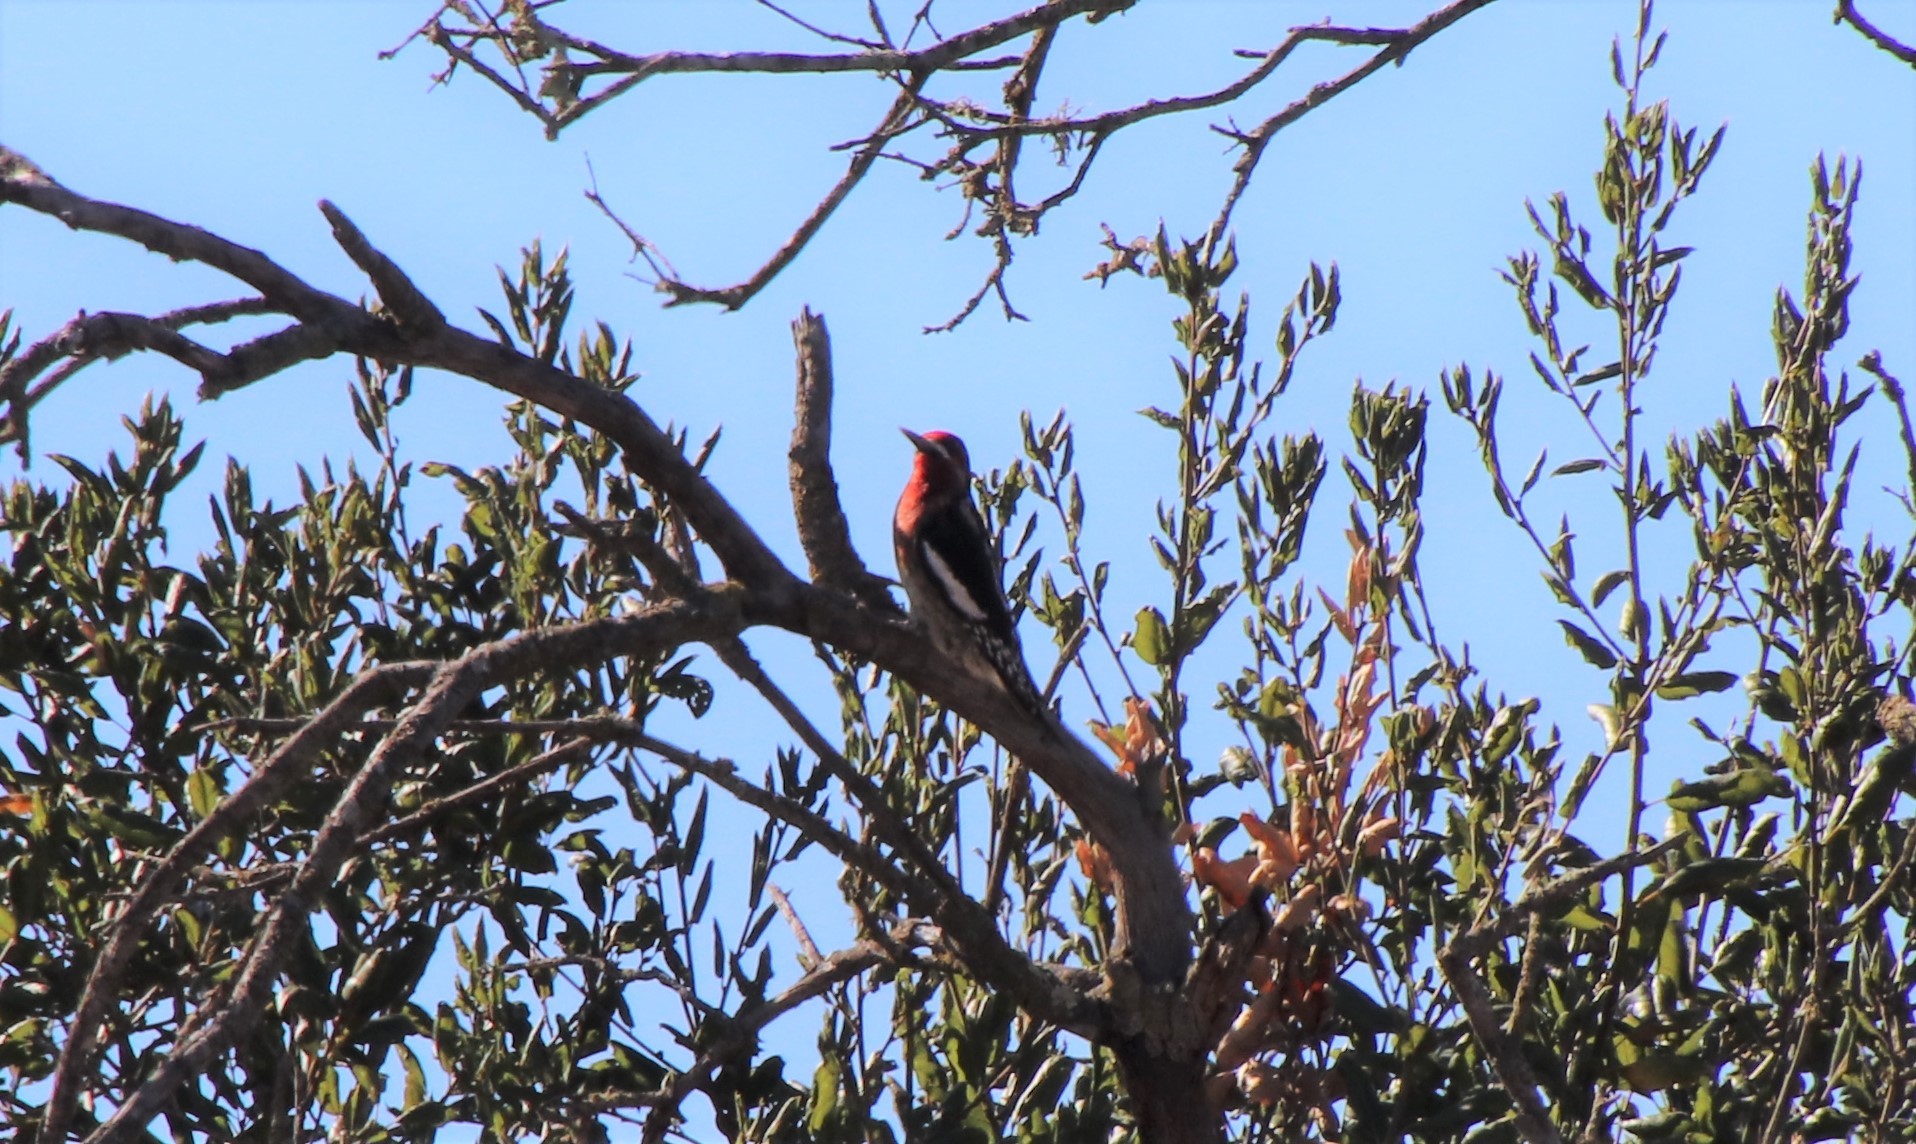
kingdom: Animalia
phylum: Chordata
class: Aves
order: Piciformes
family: Picidae
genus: Sphyrapicus
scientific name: Sphyrapicus ruber
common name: Red-breasted sapsucker
